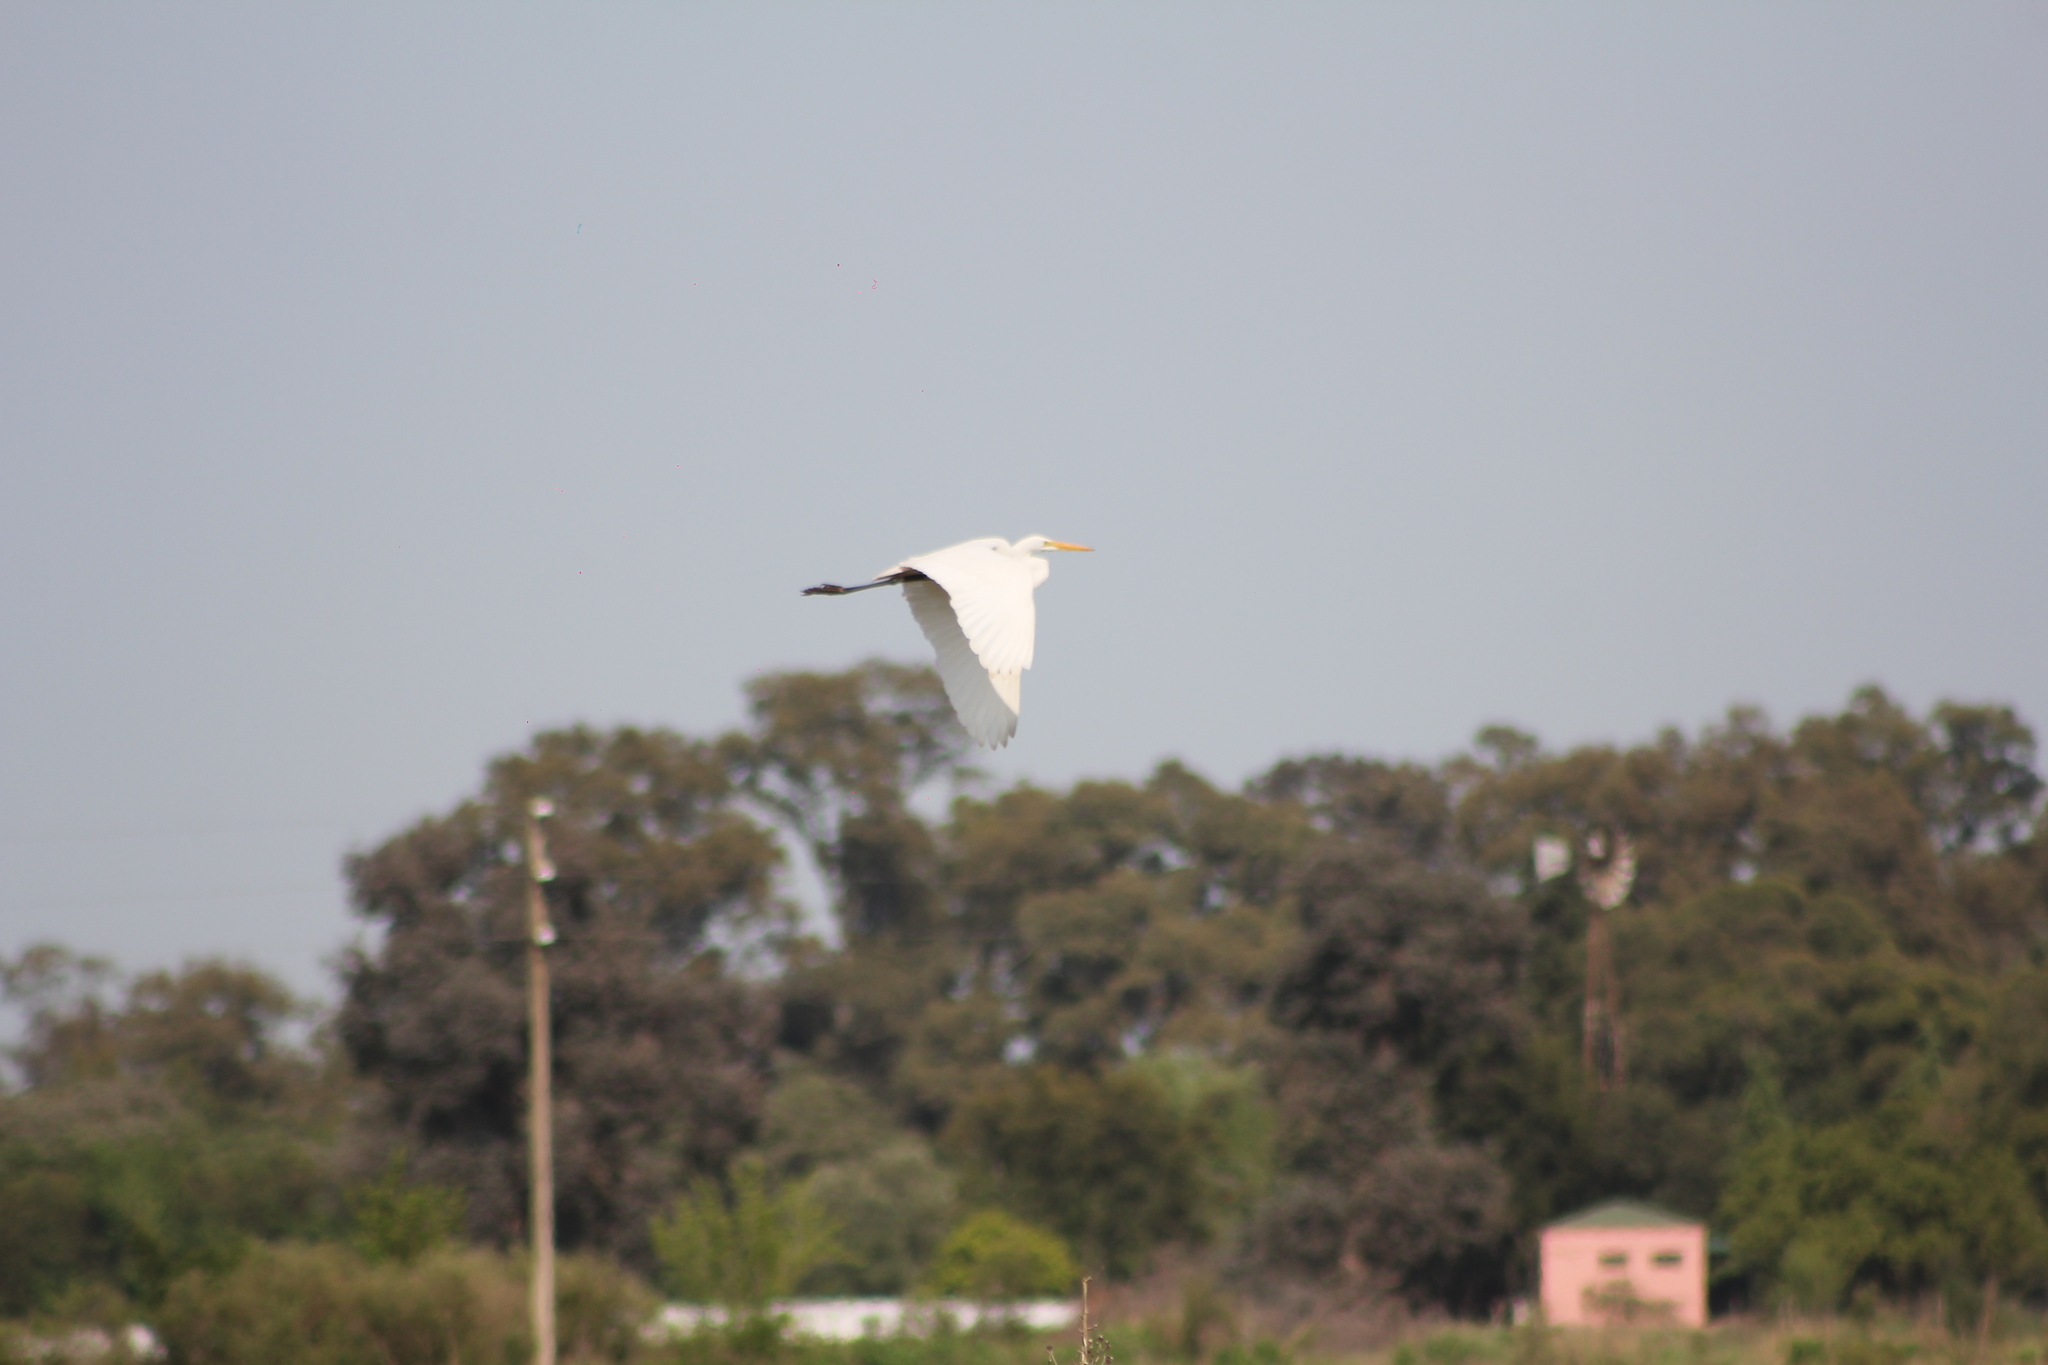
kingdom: Animalia
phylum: Chordata
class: Aves
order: Pelecaniformes
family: Ardeidae
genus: Ardea
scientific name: Ardea alba
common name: Great egret
